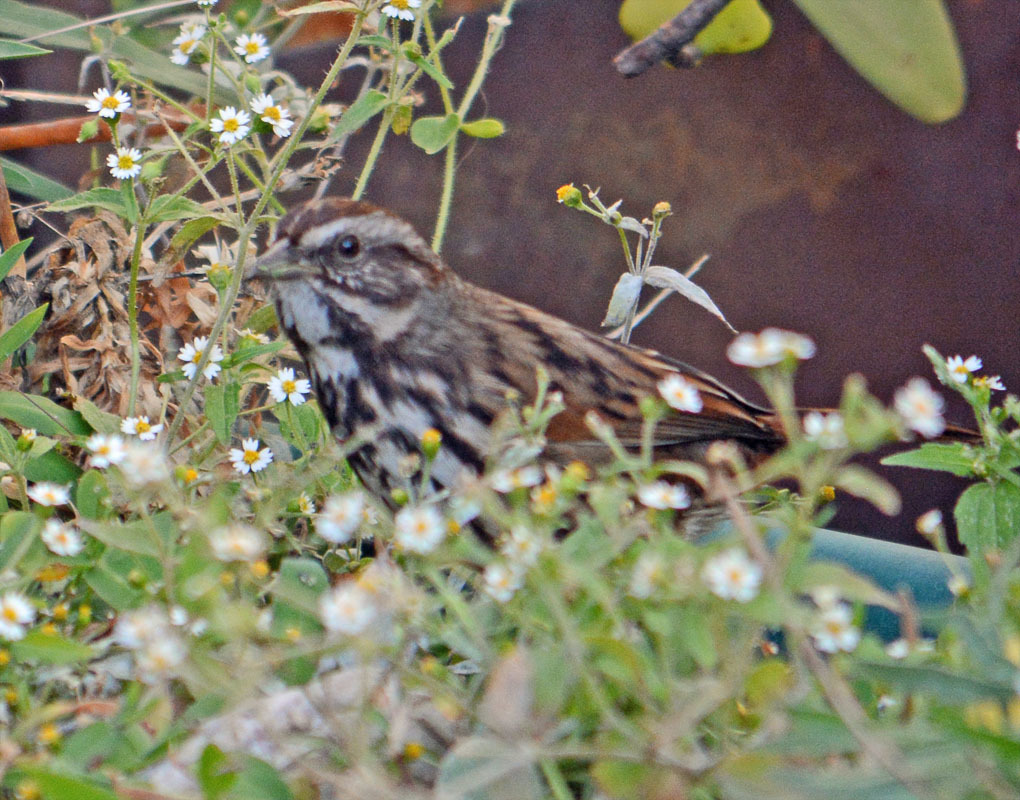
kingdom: Animalia
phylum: Chordata
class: Aves
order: Passeriformes
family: Passerellidae
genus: Melospiza
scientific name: Melospiza melodia
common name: Song sparrow
